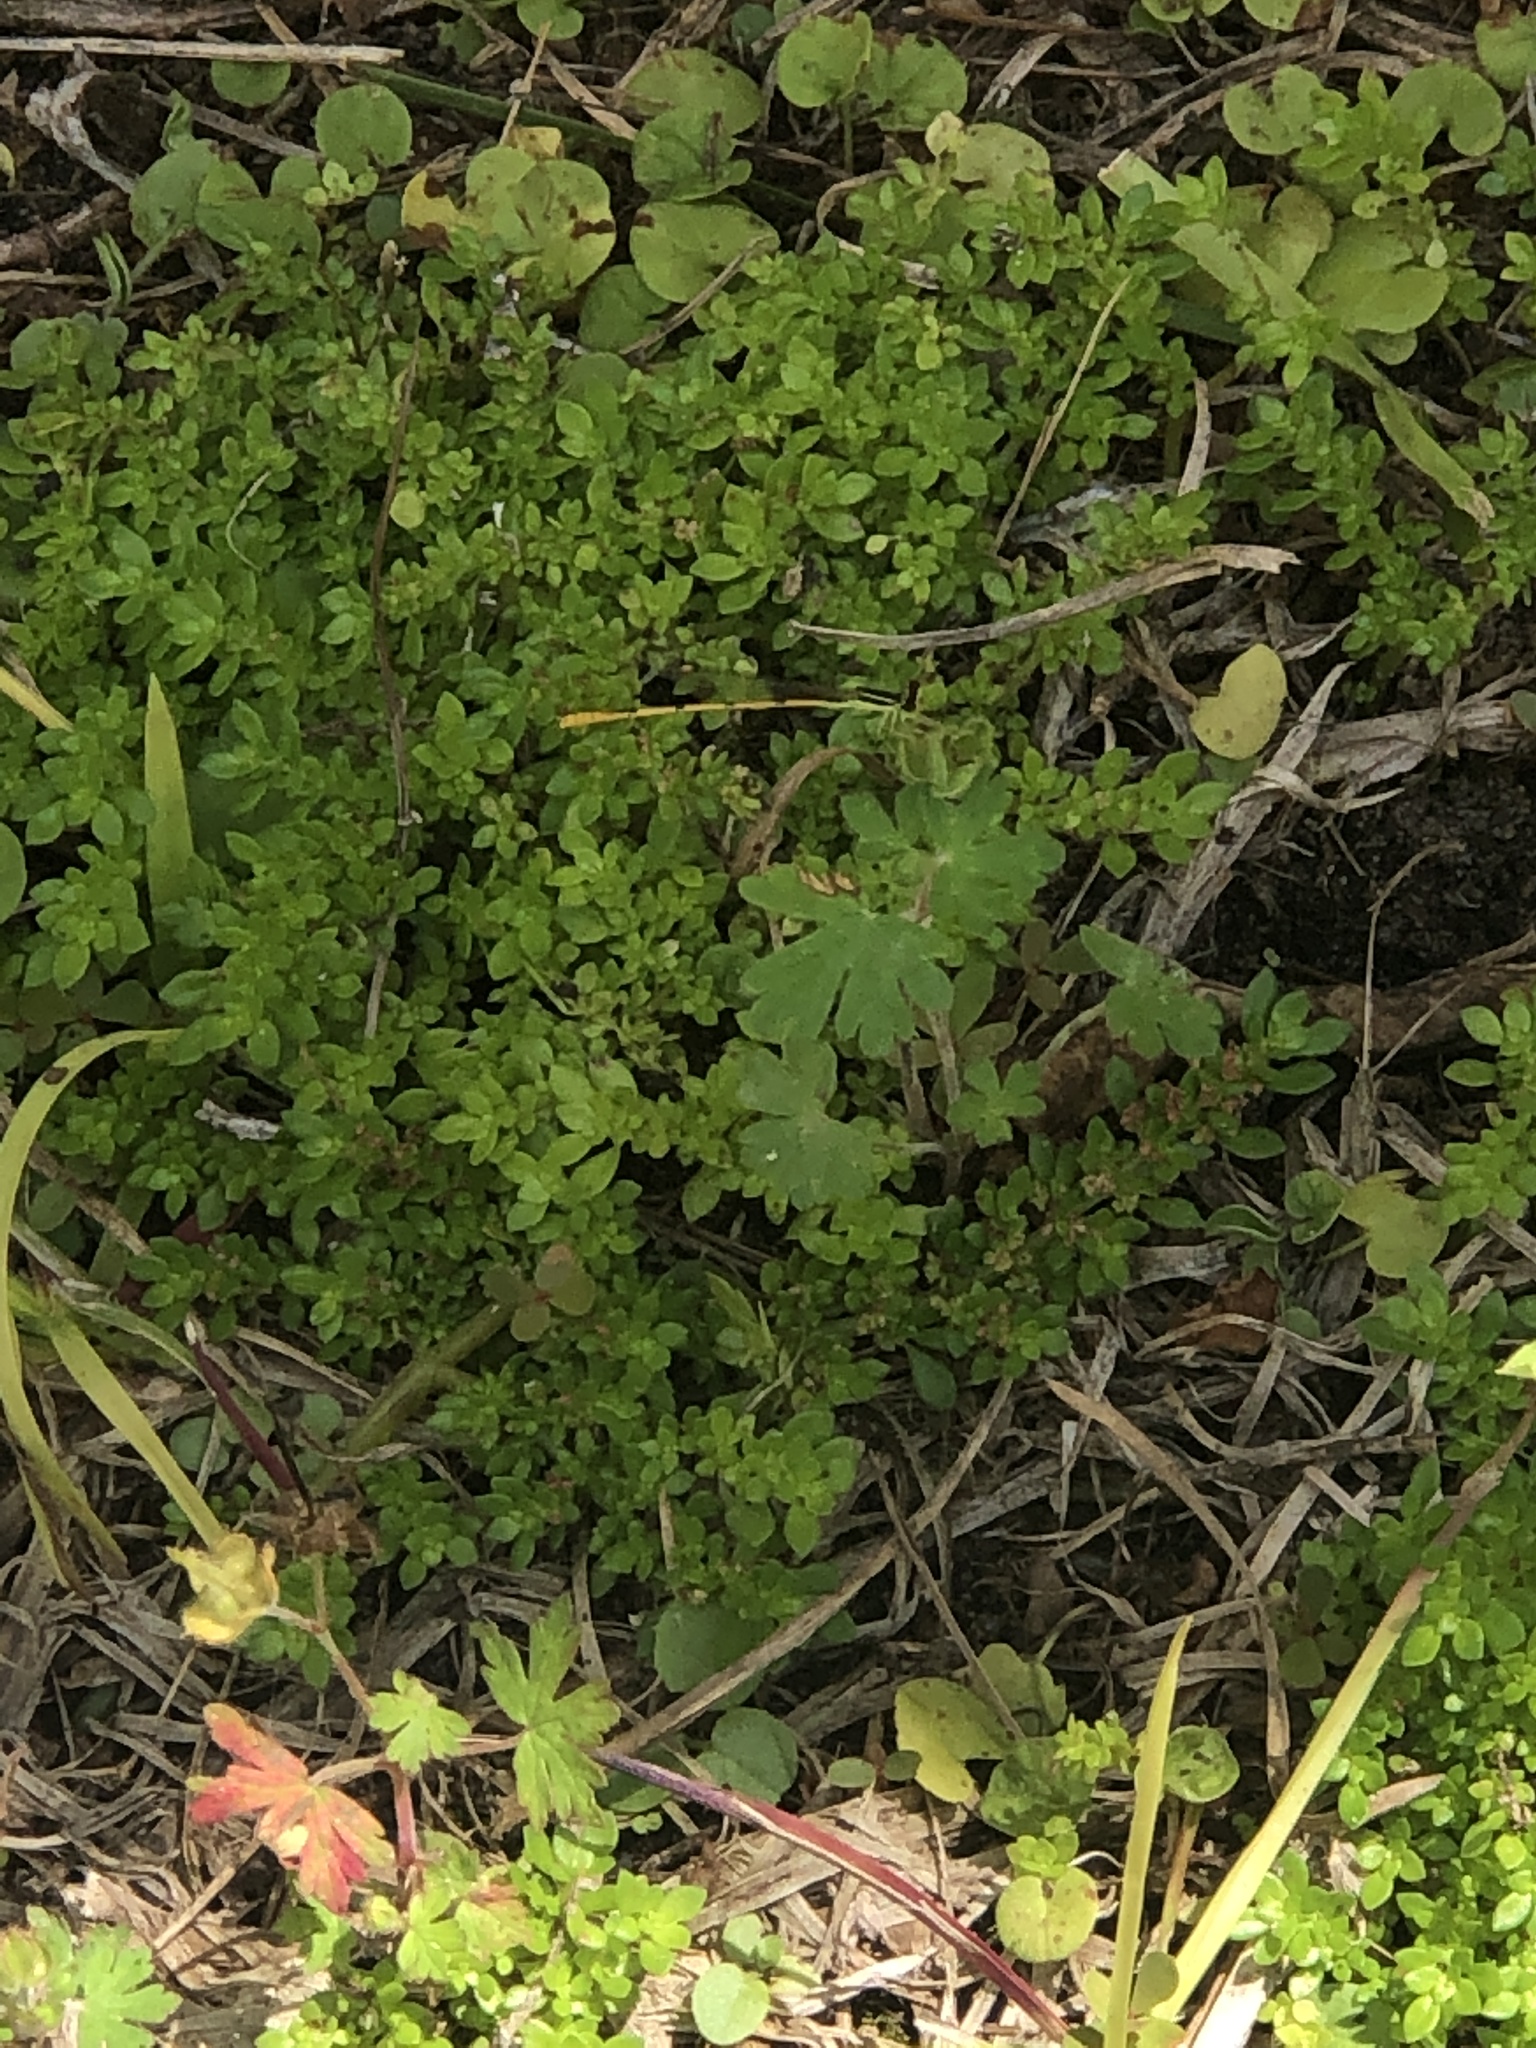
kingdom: Animalia
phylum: Arthropoda
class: Insecta
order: Odonata
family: Coenagrionidae
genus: Ischnura
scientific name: Ischnura hastata
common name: Citrine forktail
